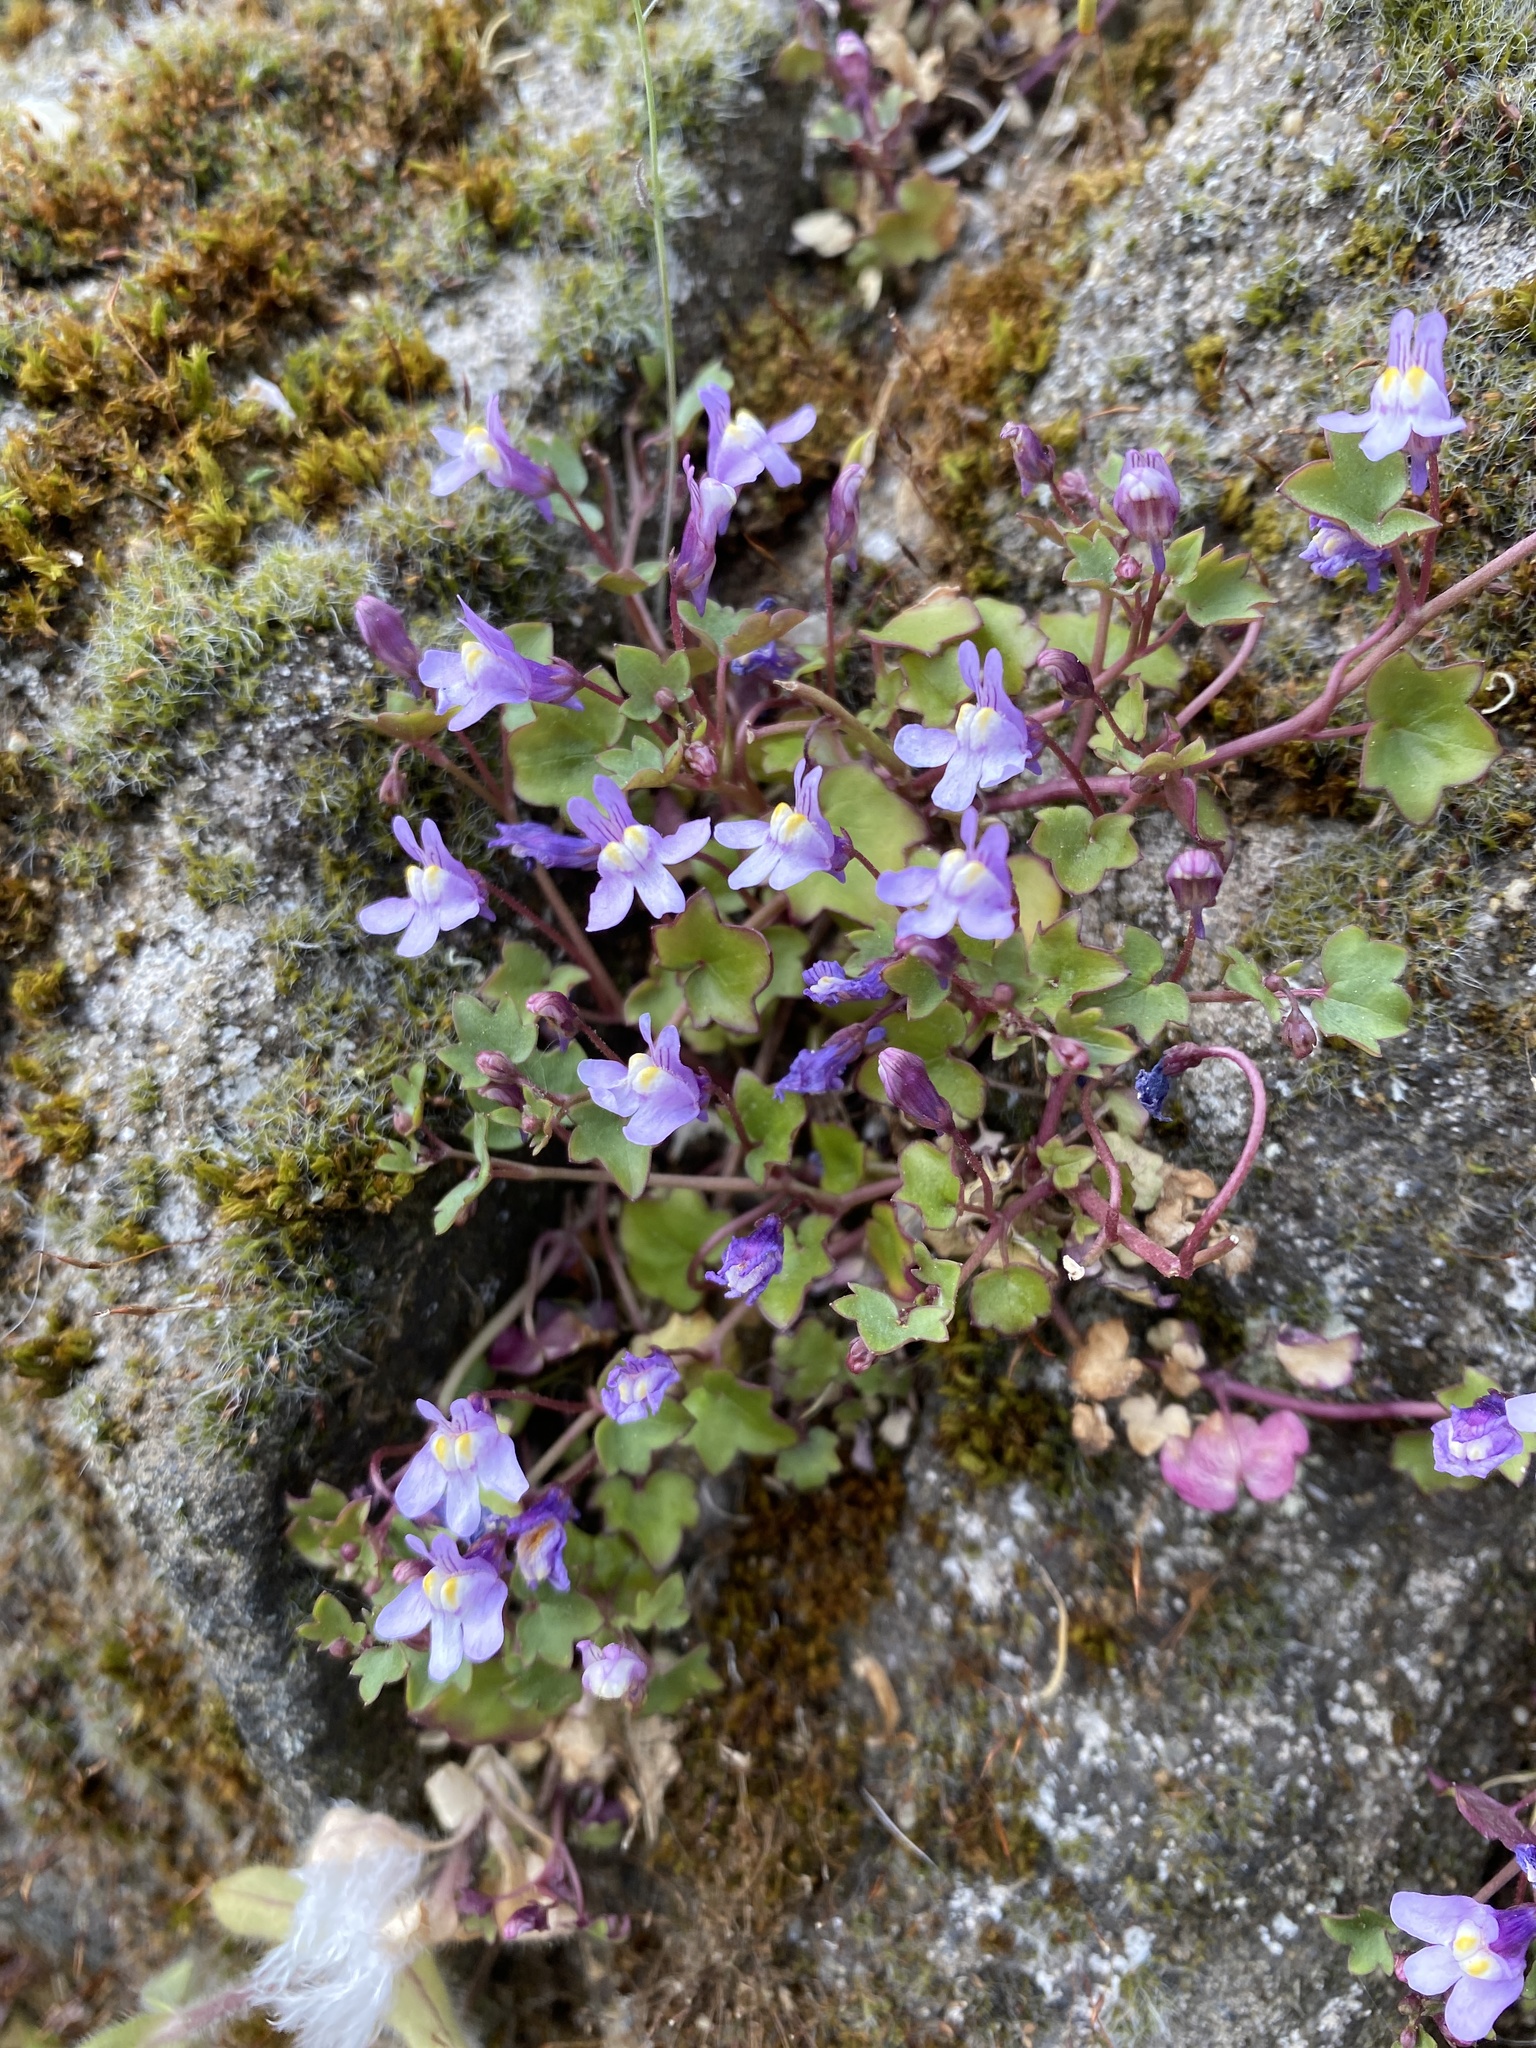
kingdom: Plantae
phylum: Tracheophyta
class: Magnoliopsida
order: Lamiales
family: Plantaginaceae
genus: Cymbalaria
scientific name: Cymbalaria muralis
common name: Ivy-leaved toadflax
